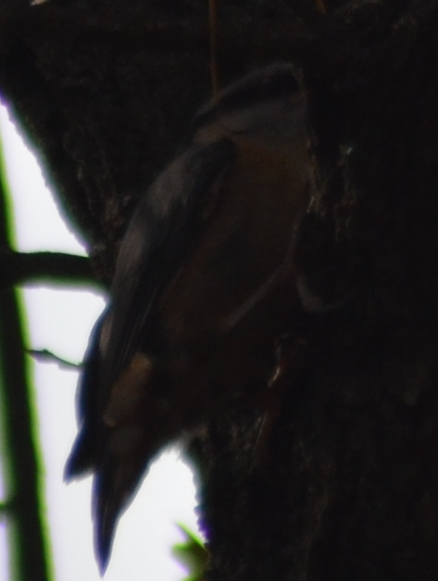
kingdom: Animalia
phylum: Chordata
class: Aves
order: Passeriformes
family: Sittidae
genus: Sitta
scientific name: Sitta europaea
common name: Eurasian nuthatch
